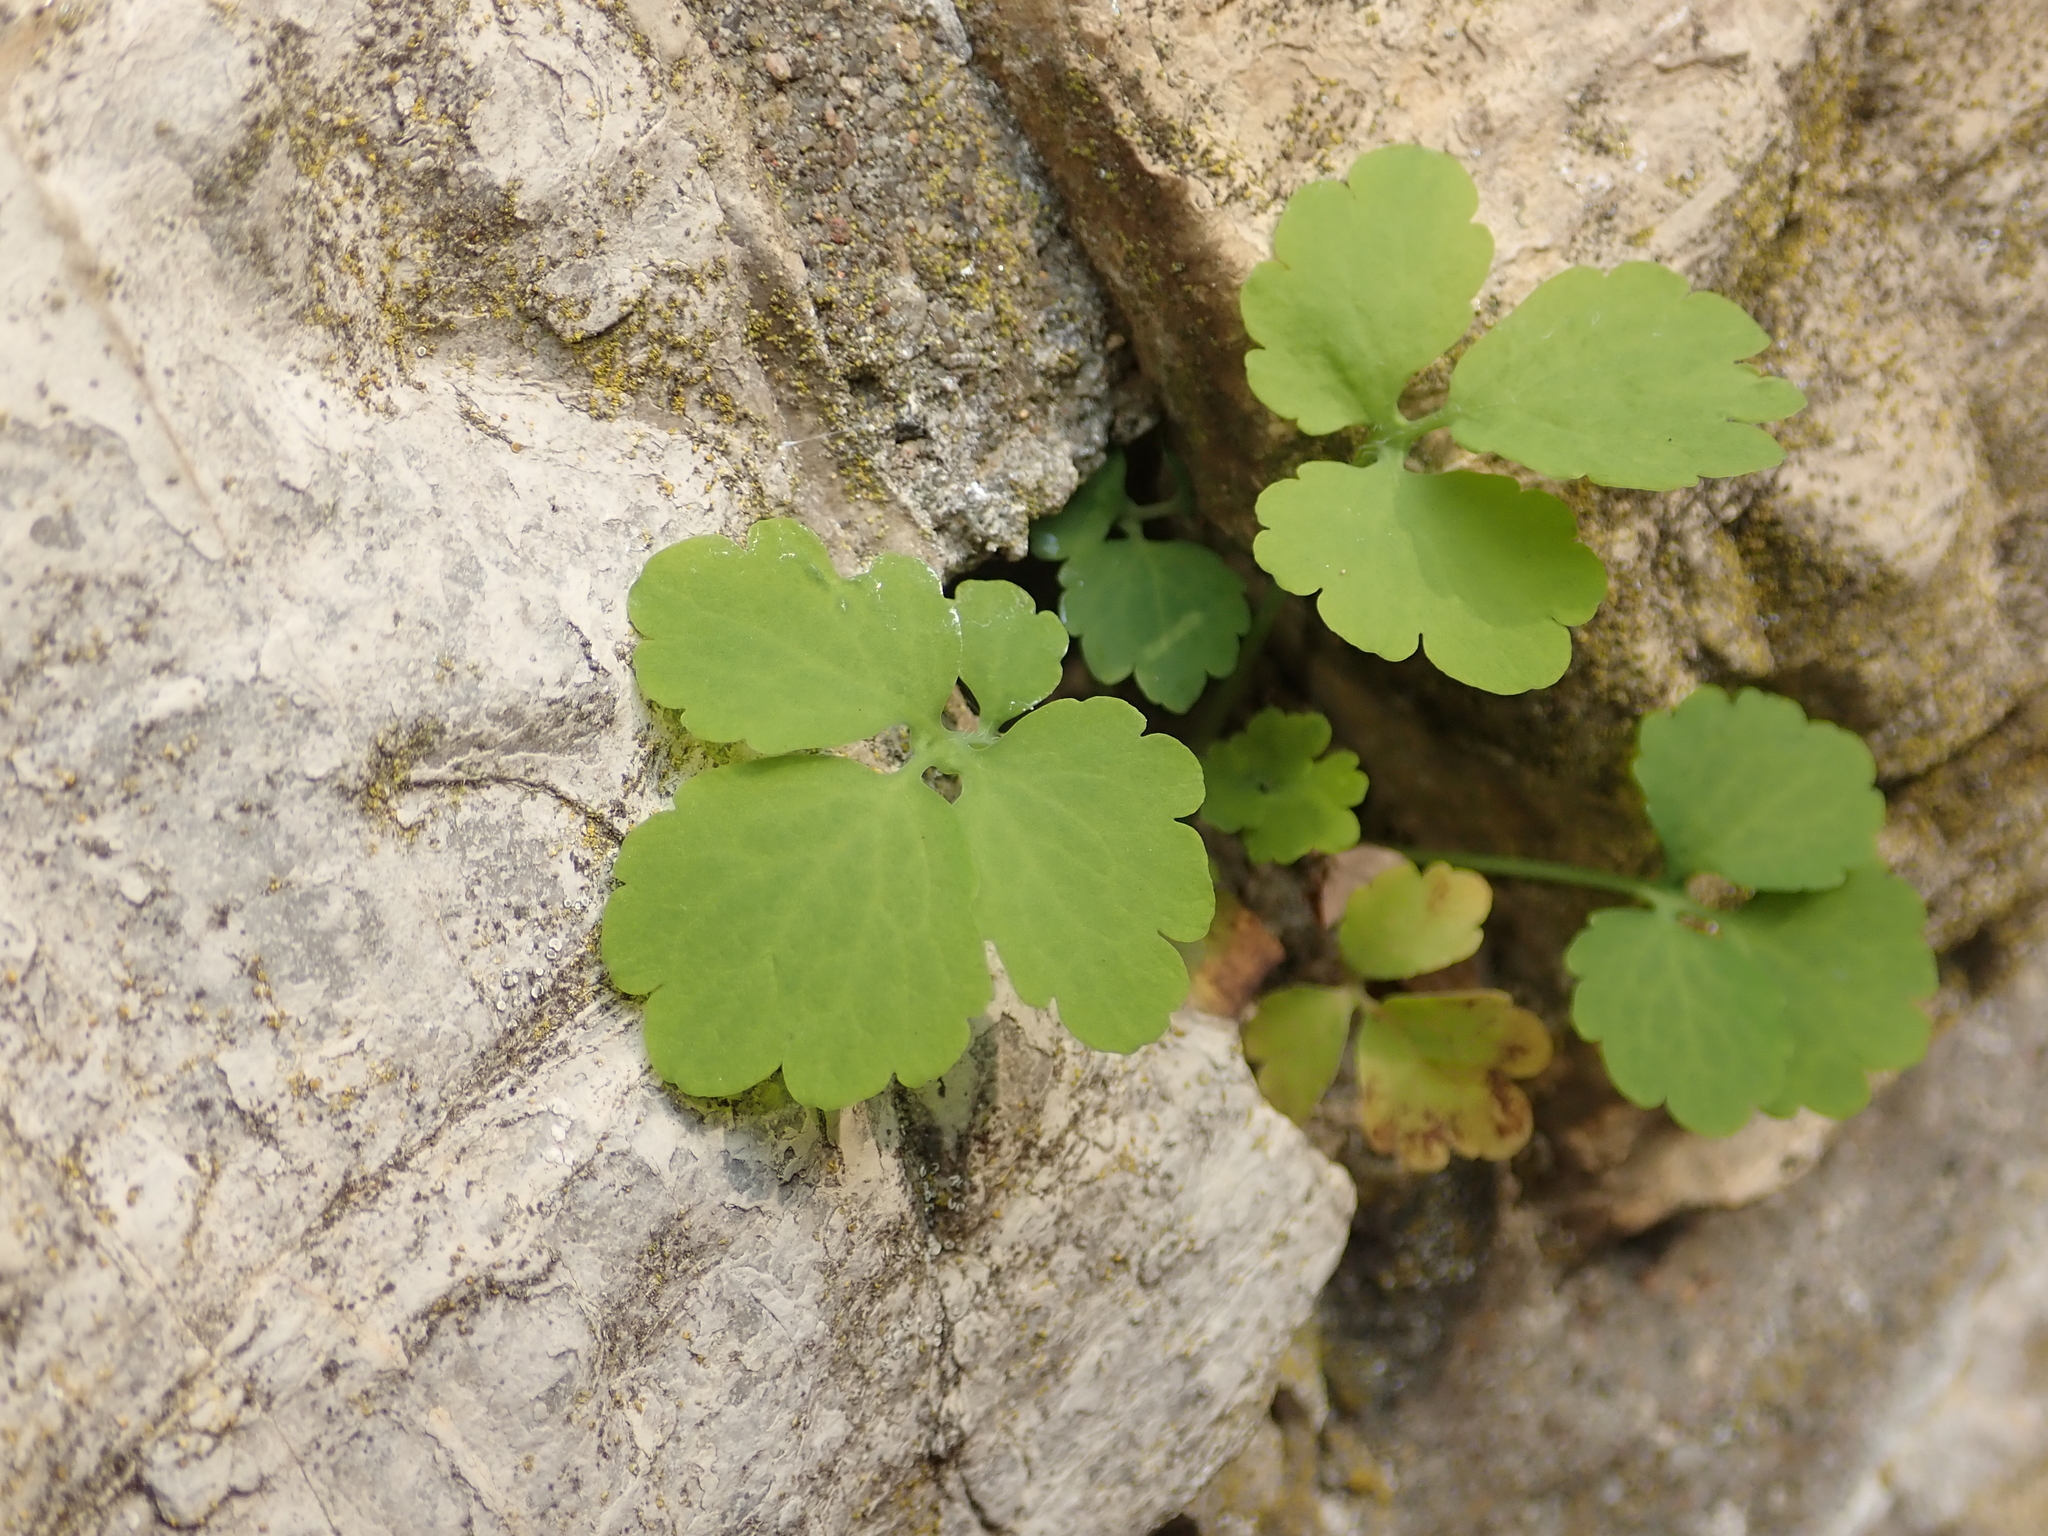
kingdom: Plantae
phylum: Tracheophyta
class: Magnoliopsida
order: Ranunculales
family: Papaveraceae
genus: Chelidonium
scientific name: Chelidonium majus
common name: Greater celandine
